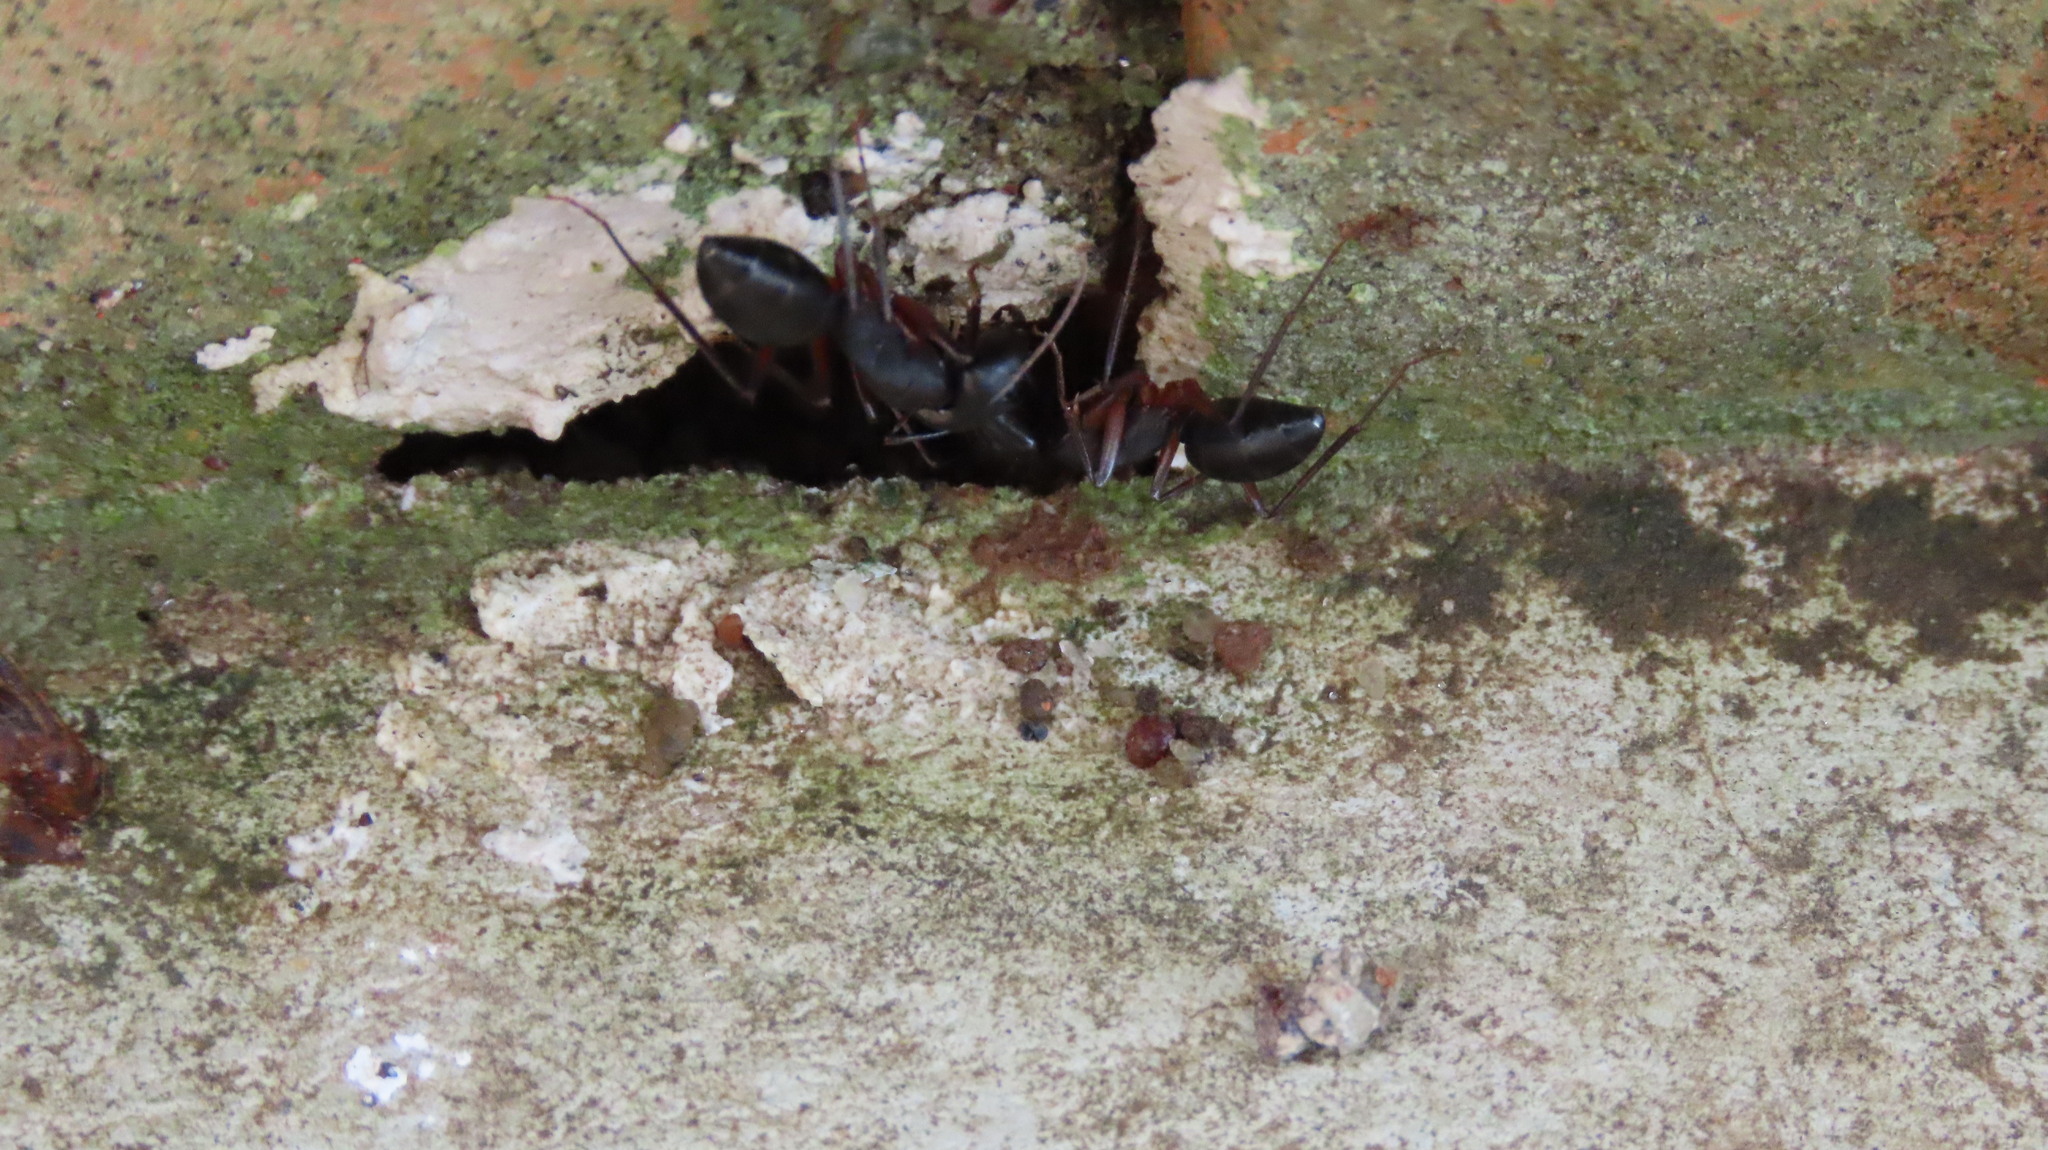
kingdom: Animalia
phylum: Arthropoda
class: Insecta
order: Hymenoptera
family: Formicidae
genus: Camponotus
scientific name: Camponotus compressus
